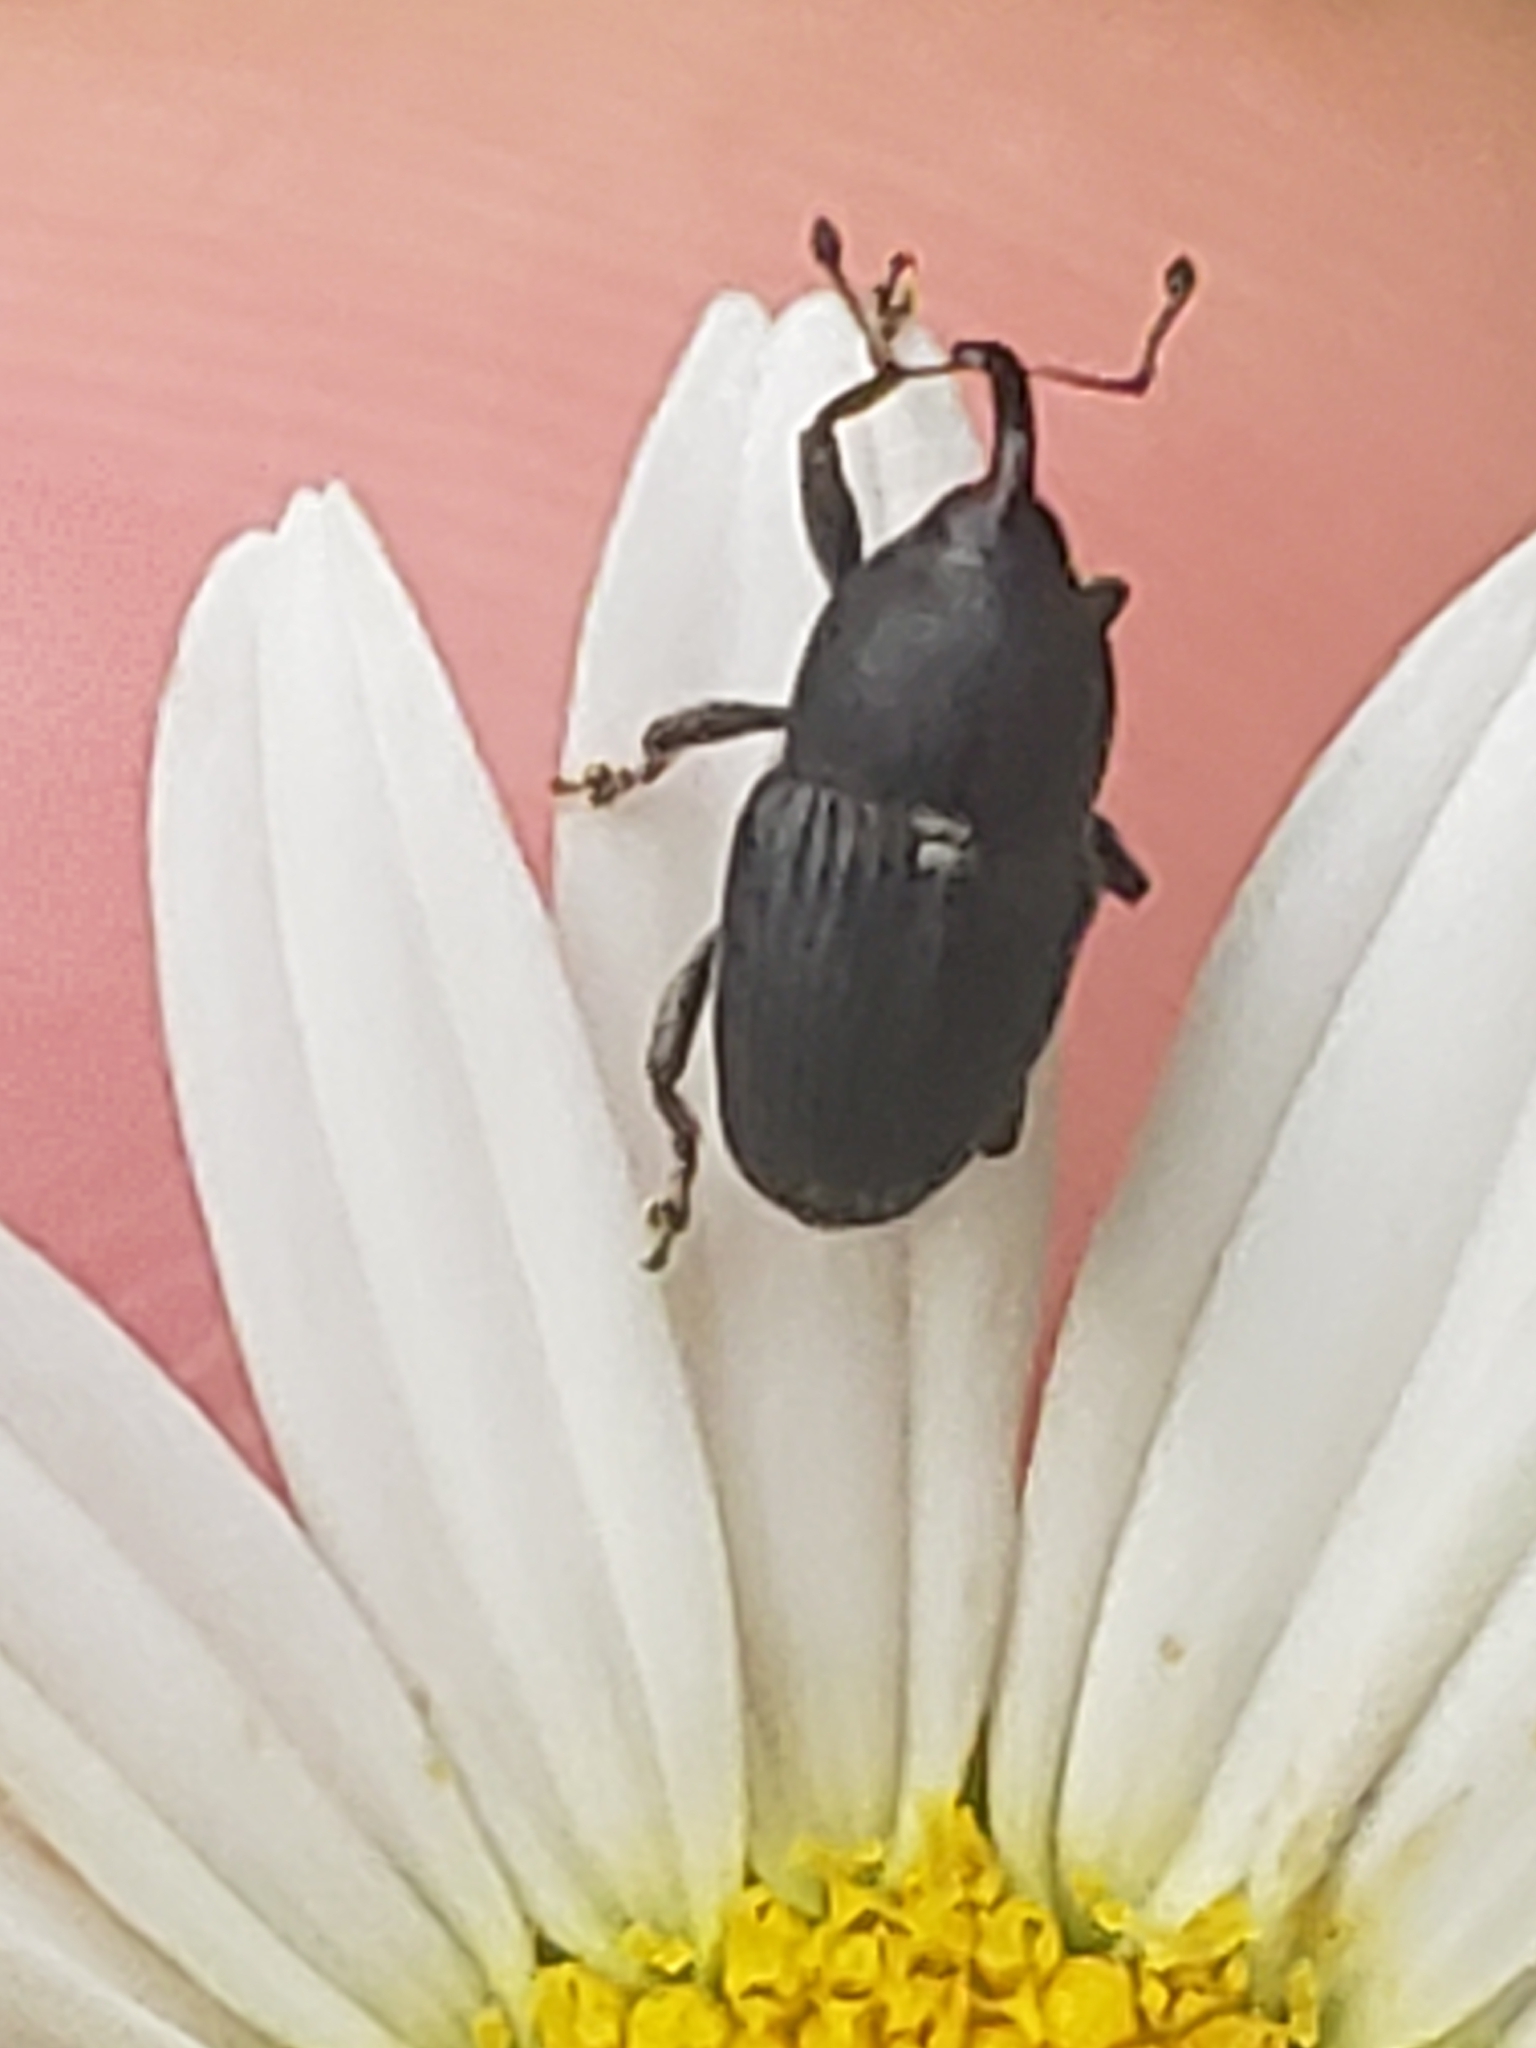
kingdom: Animalia
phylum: Arthropoda
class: Insecta
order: Coleoptera
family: Curculionidae
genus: Odontocorynus
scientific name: Odontocorynus salebrosus
